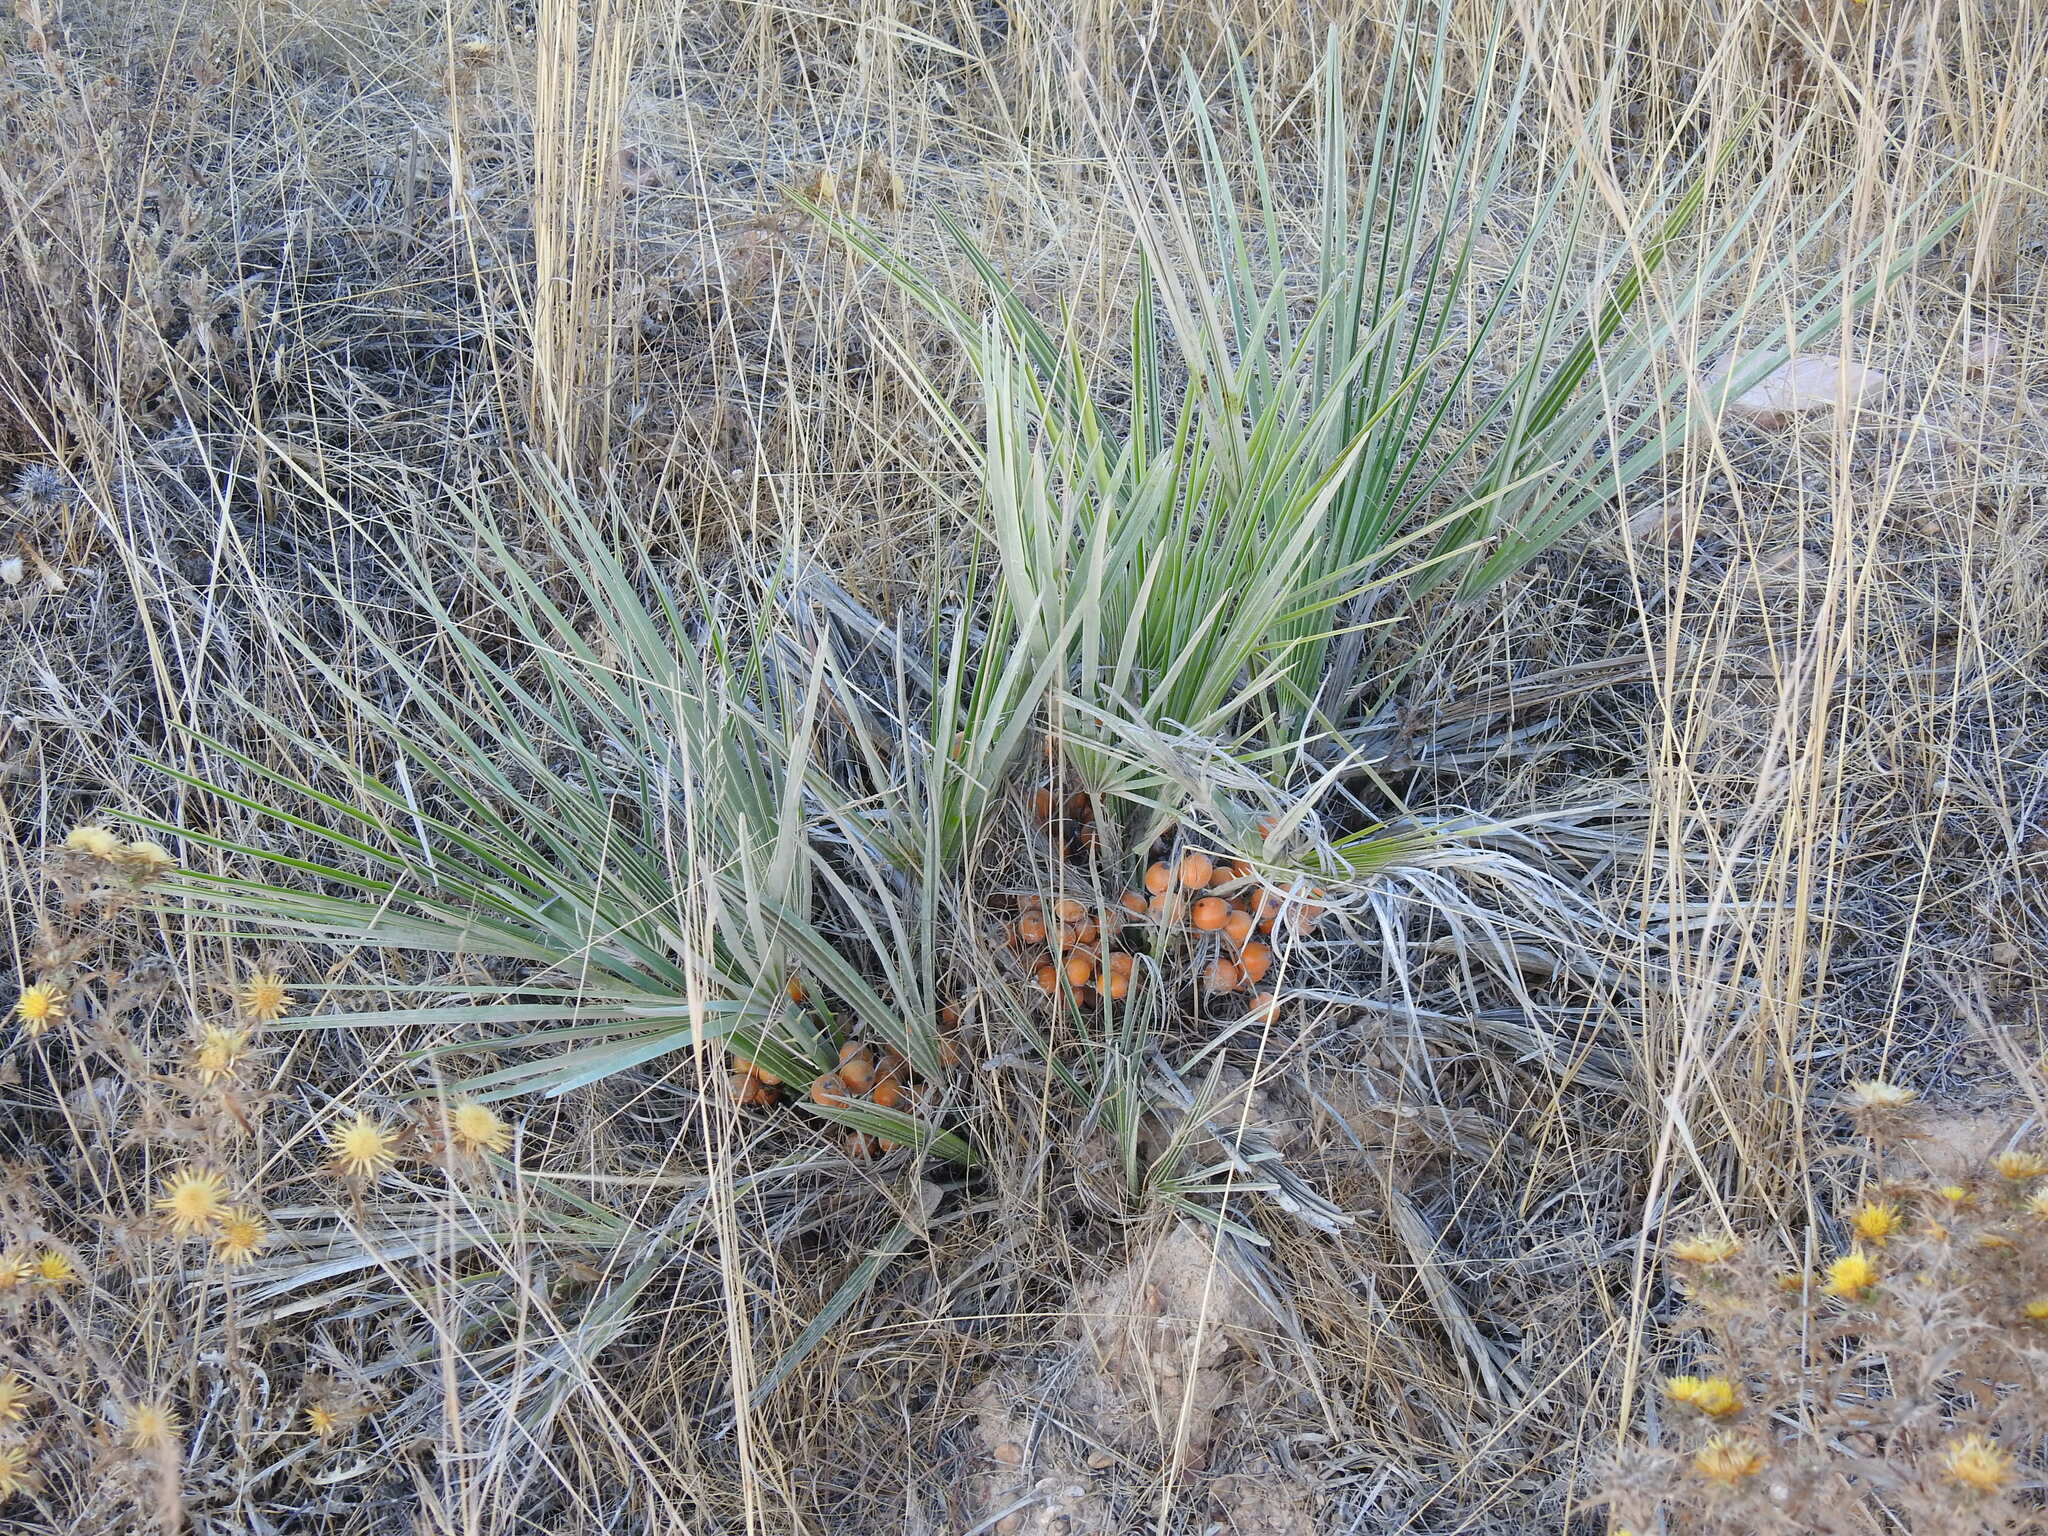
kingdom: Plantae
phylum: Tracheophyta
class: Liliopsida
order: Arecales
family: Arecaceae
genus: Chamaerops
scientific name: Chamaerops humilis
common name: Dwarf fan palm
